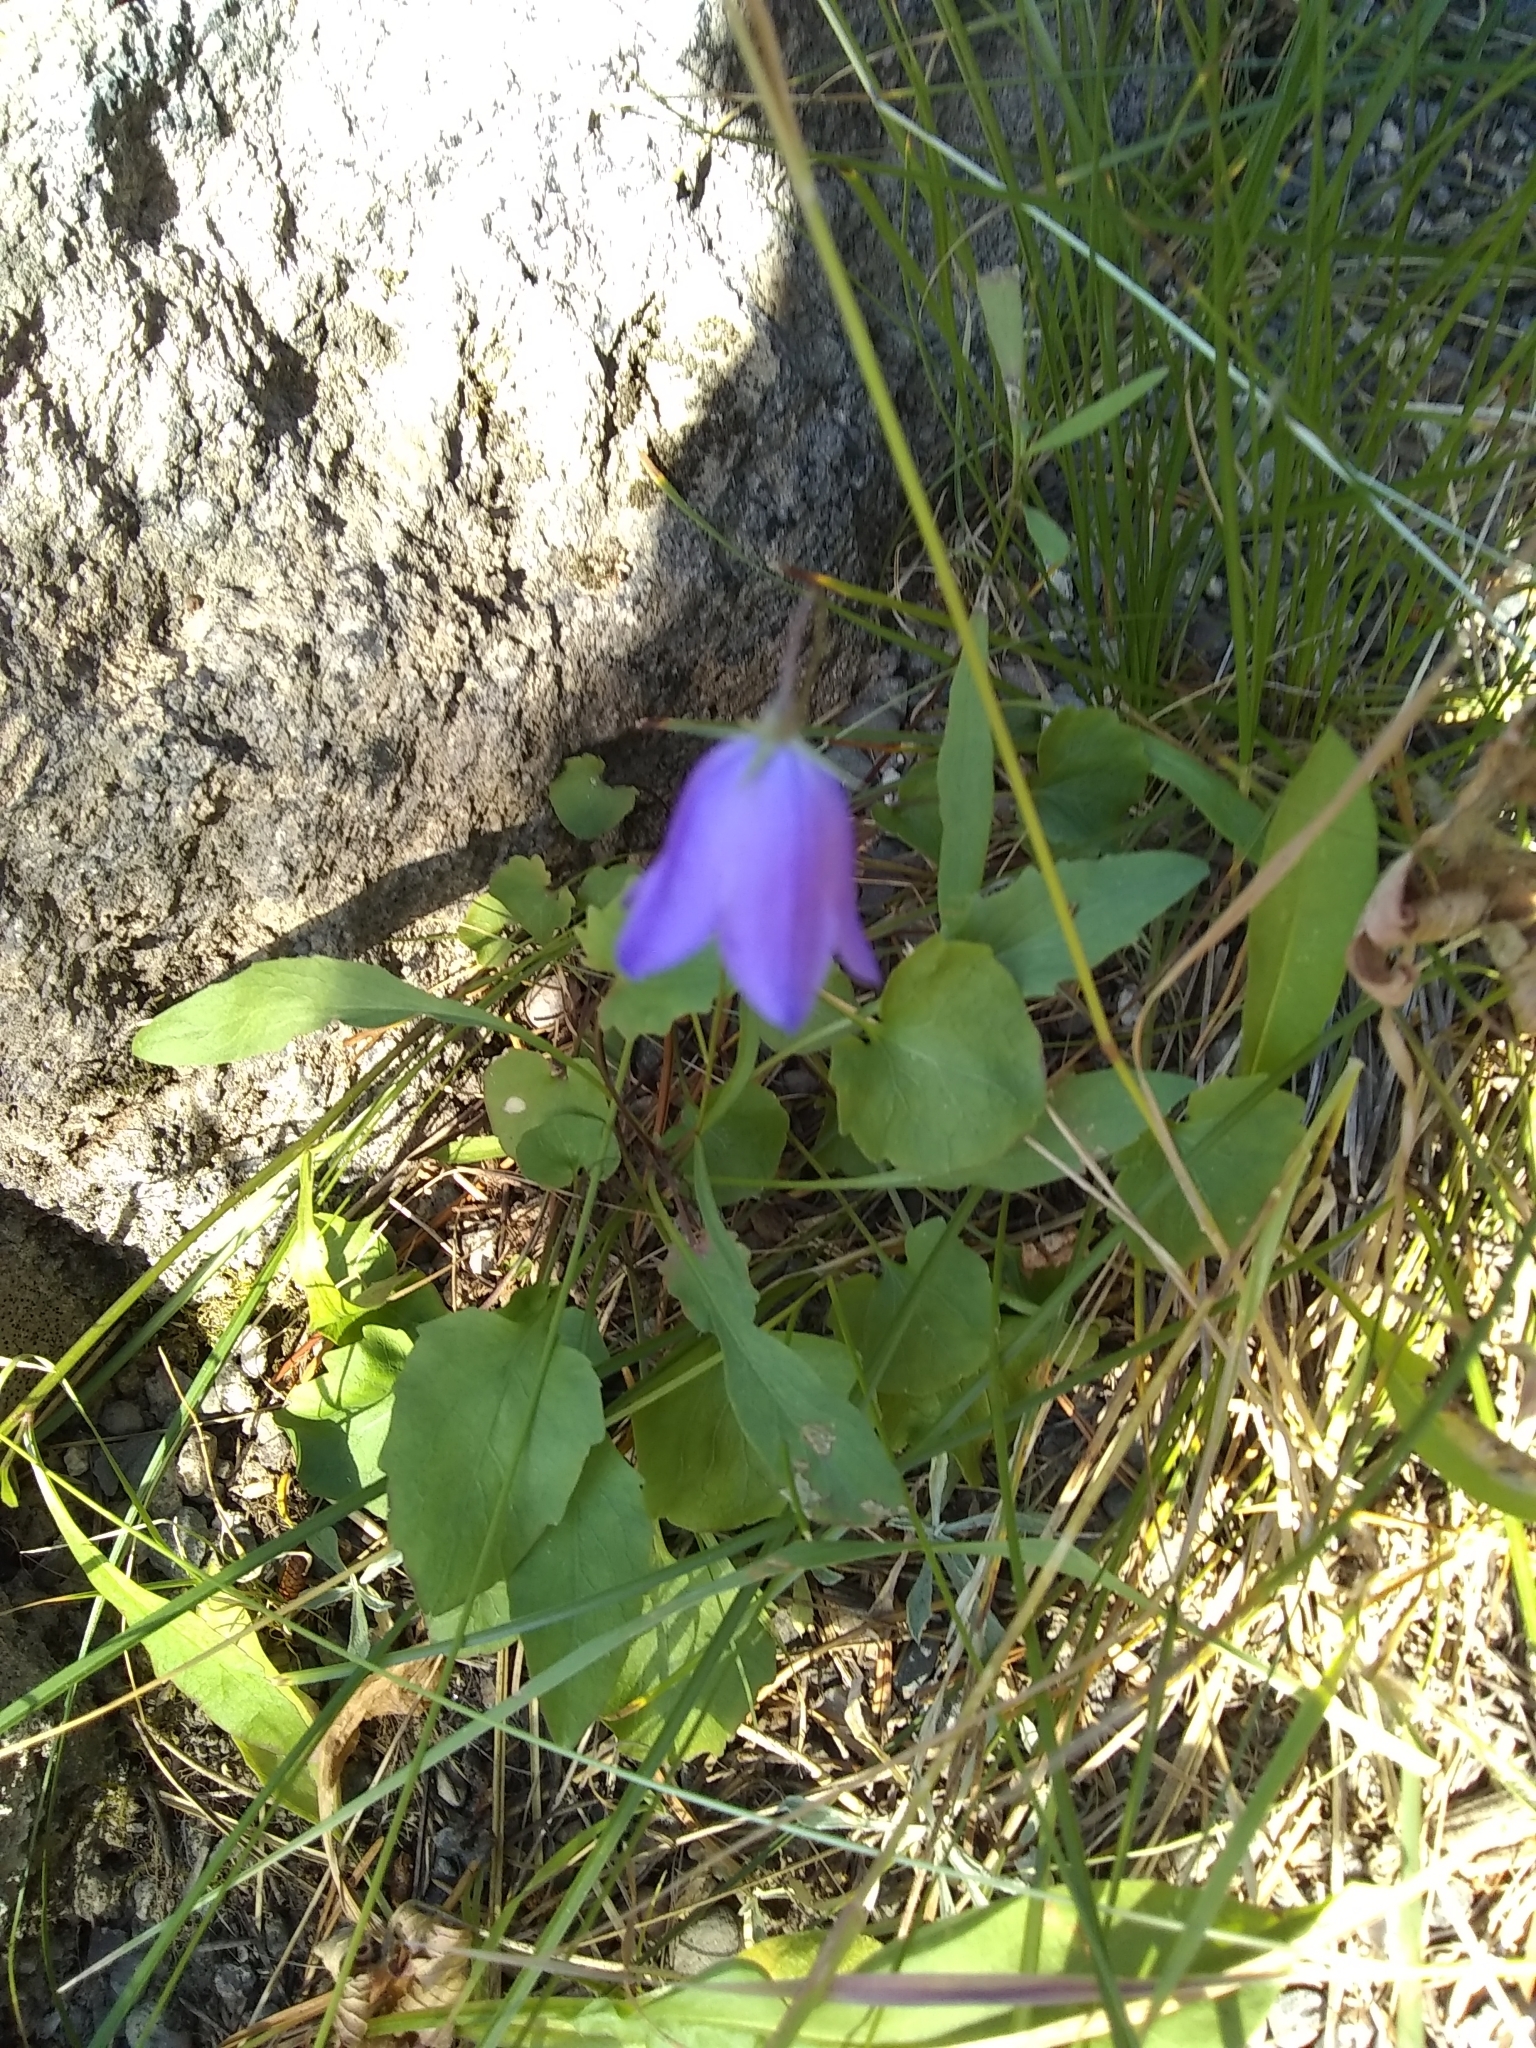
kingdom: Plantae
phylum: Tracheophyta
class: Magnoliopsida
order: Asterales
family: Campanulaceae
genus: Campanula
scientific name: Campanula
